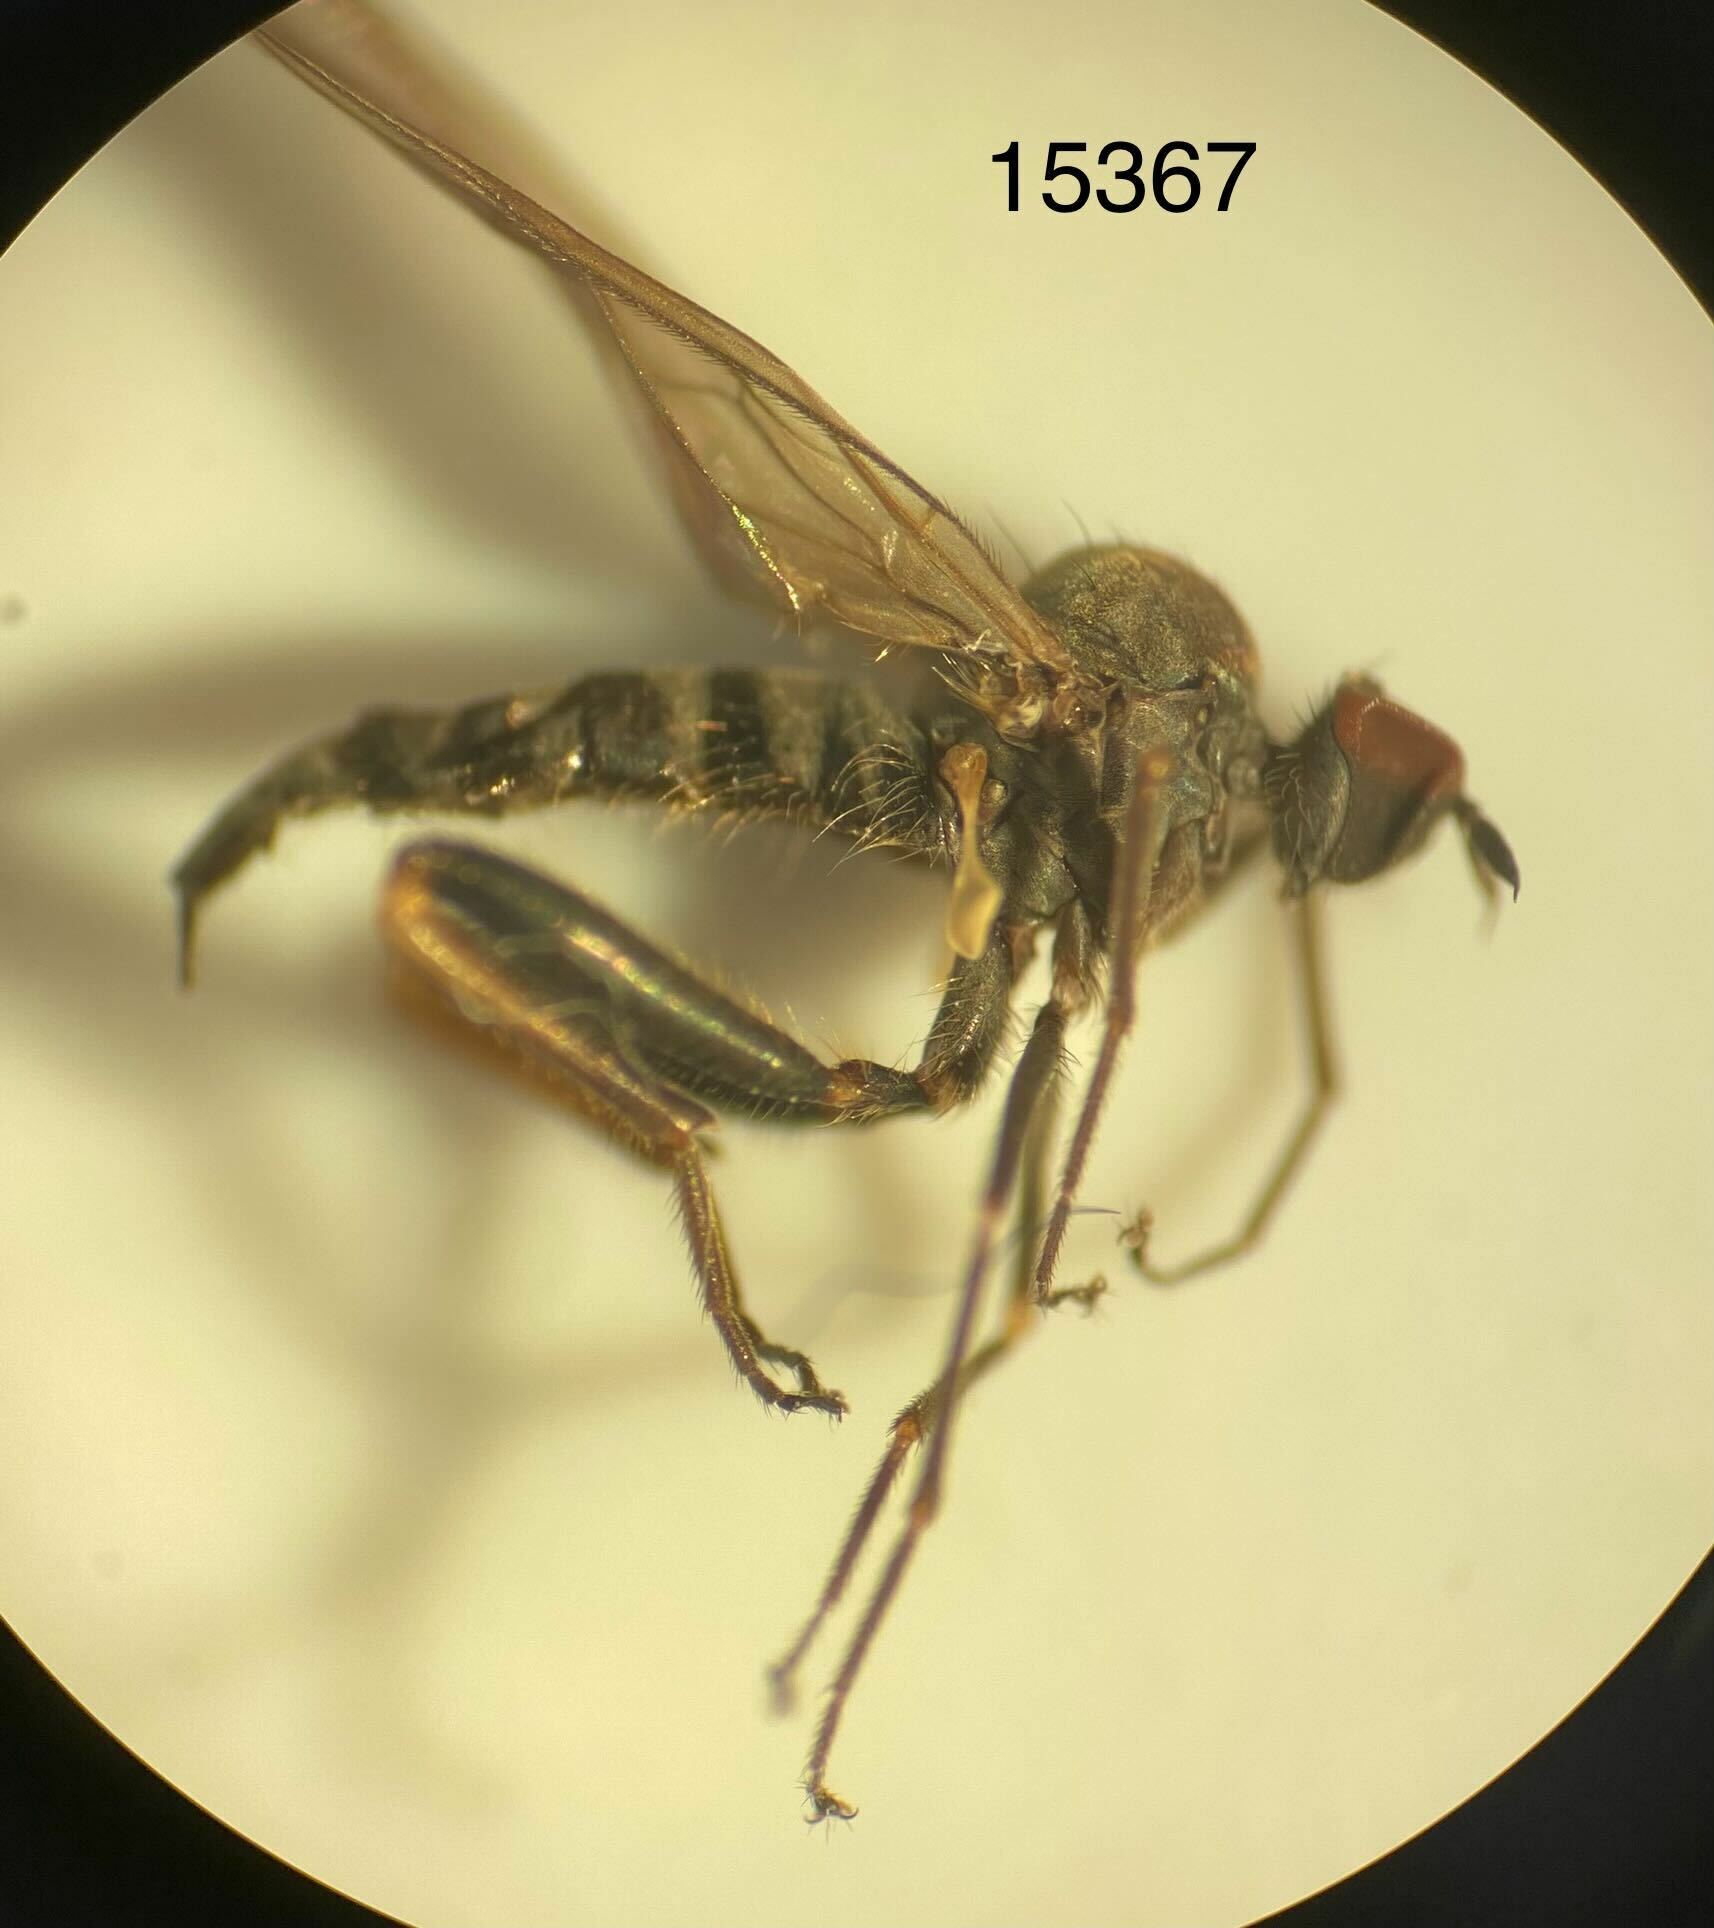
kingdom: Animalia
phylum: Arthropoda
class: Insecta
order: Diptera
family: Hybotidae
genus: Hoplocyrtoma
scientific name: Hoplocyrtoma femorata
